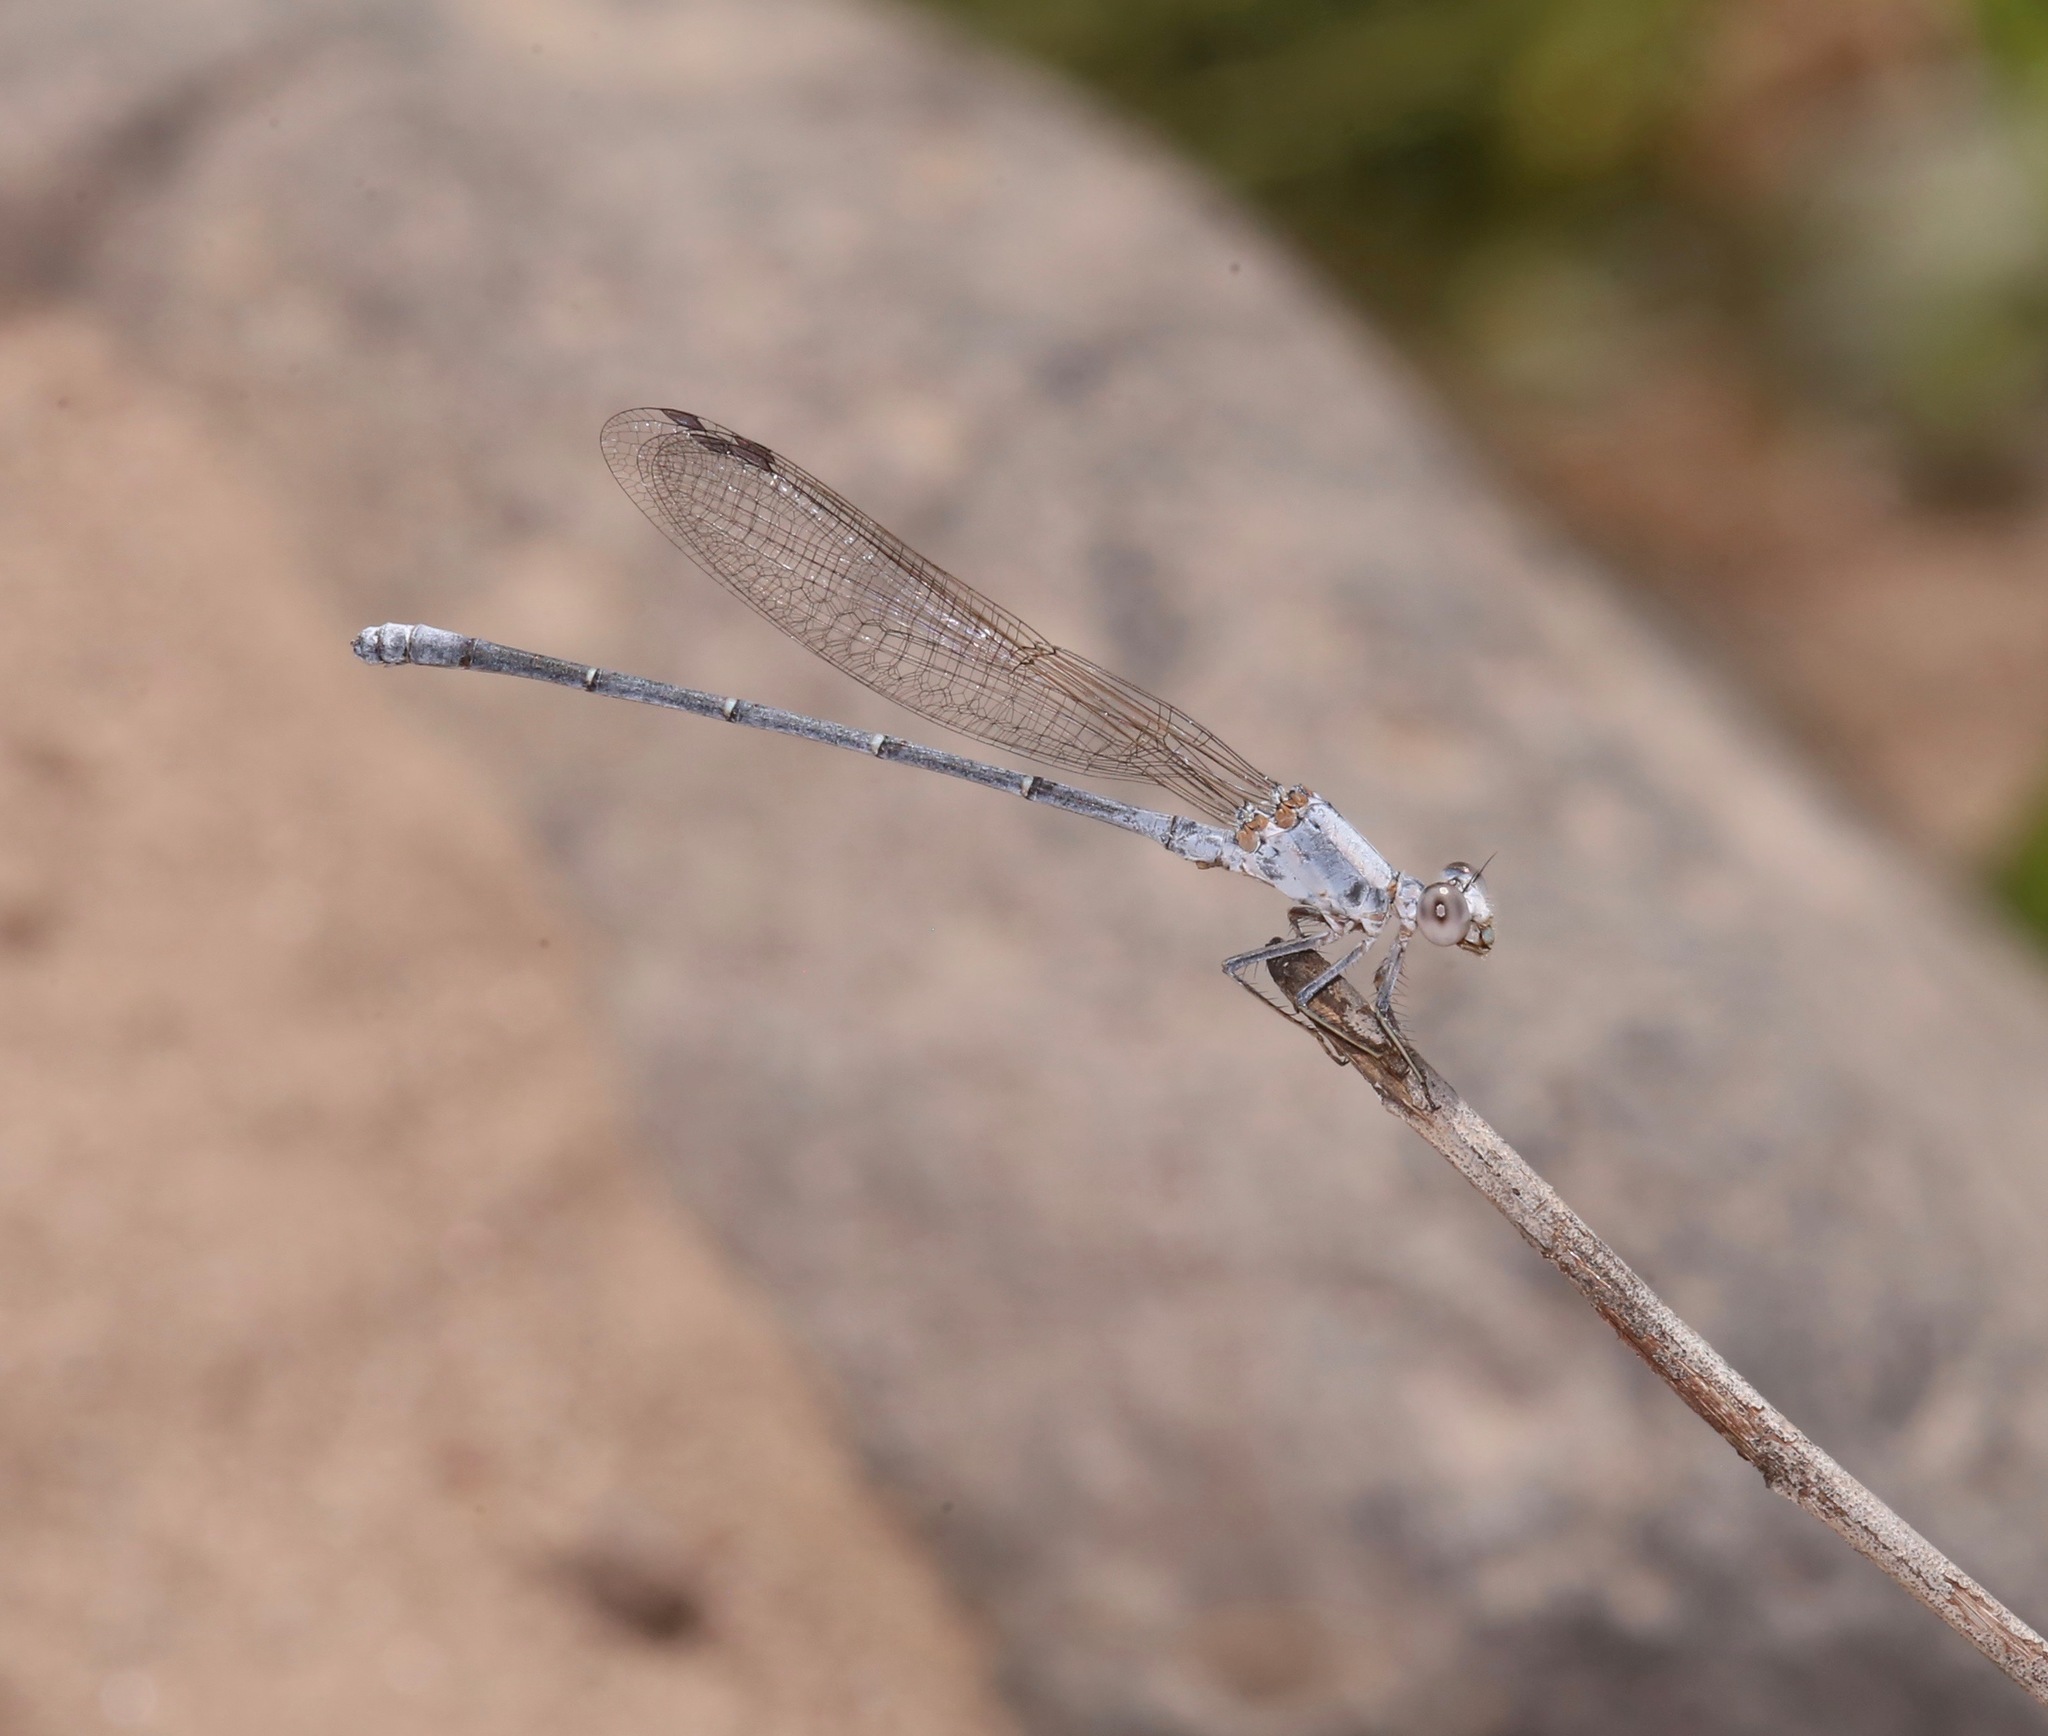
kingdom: Animalia
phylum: Arthropoda
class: Insecta
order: Odonata
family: Coenagrionidae
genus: Argia
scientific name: Argia moesta
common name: Powdered dancer
